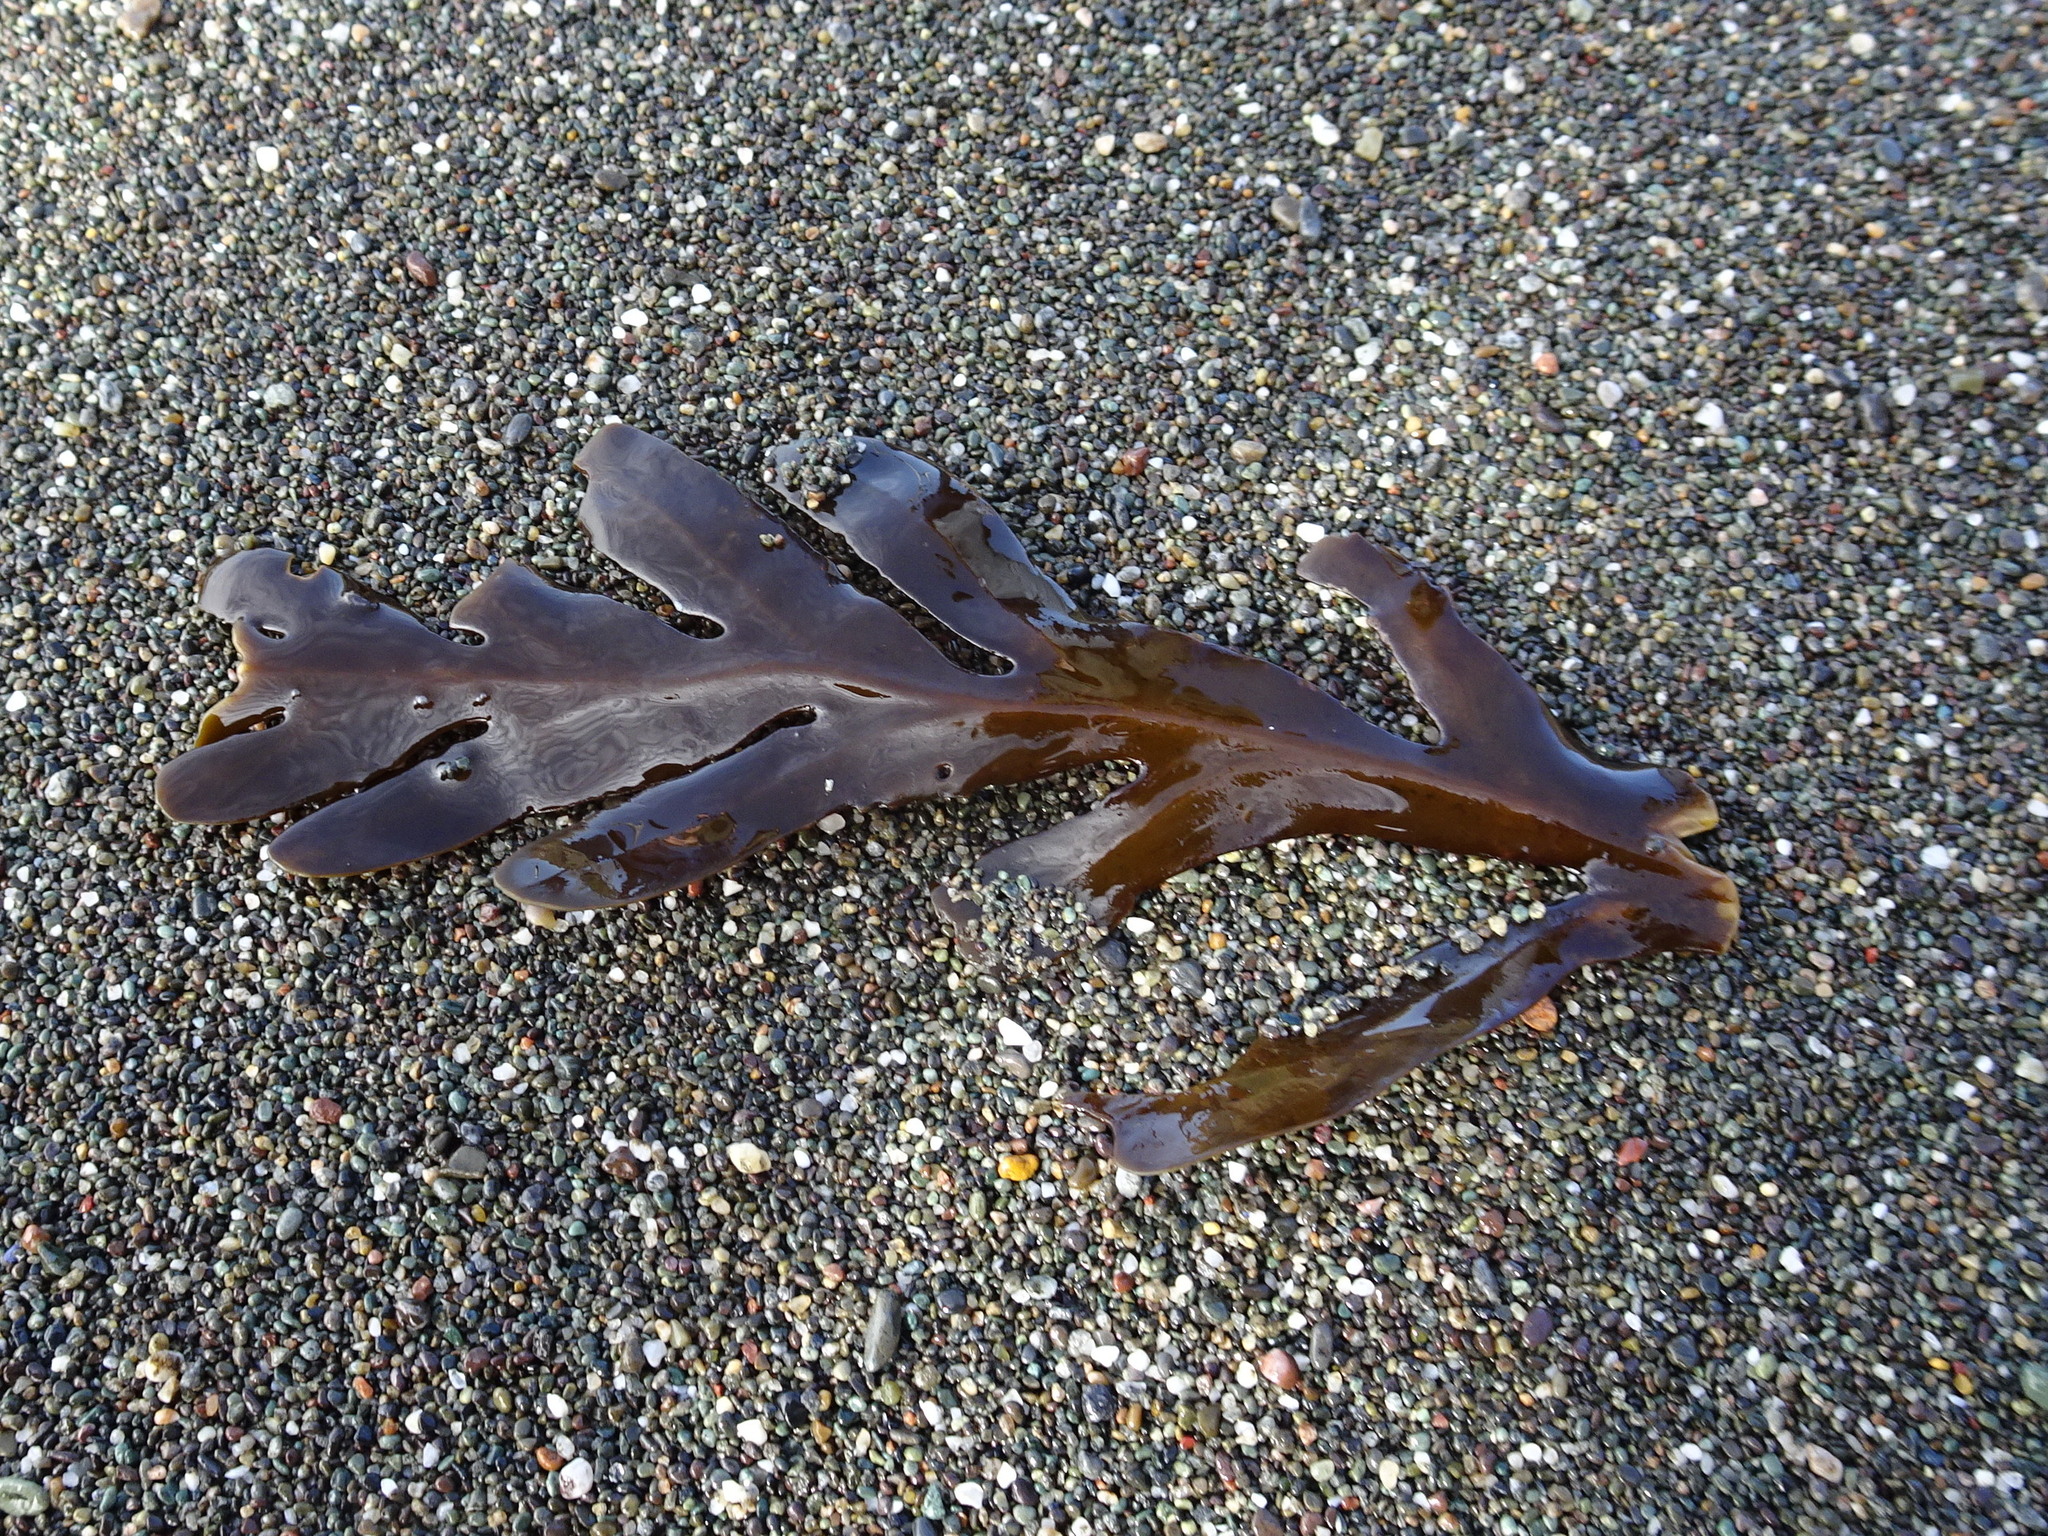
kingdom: Chromista
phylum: Ochrophyta
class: Phaeophyceae
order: Fucales
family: Sargassaceae
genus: Stephanocystis
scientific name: Stephanocystis
